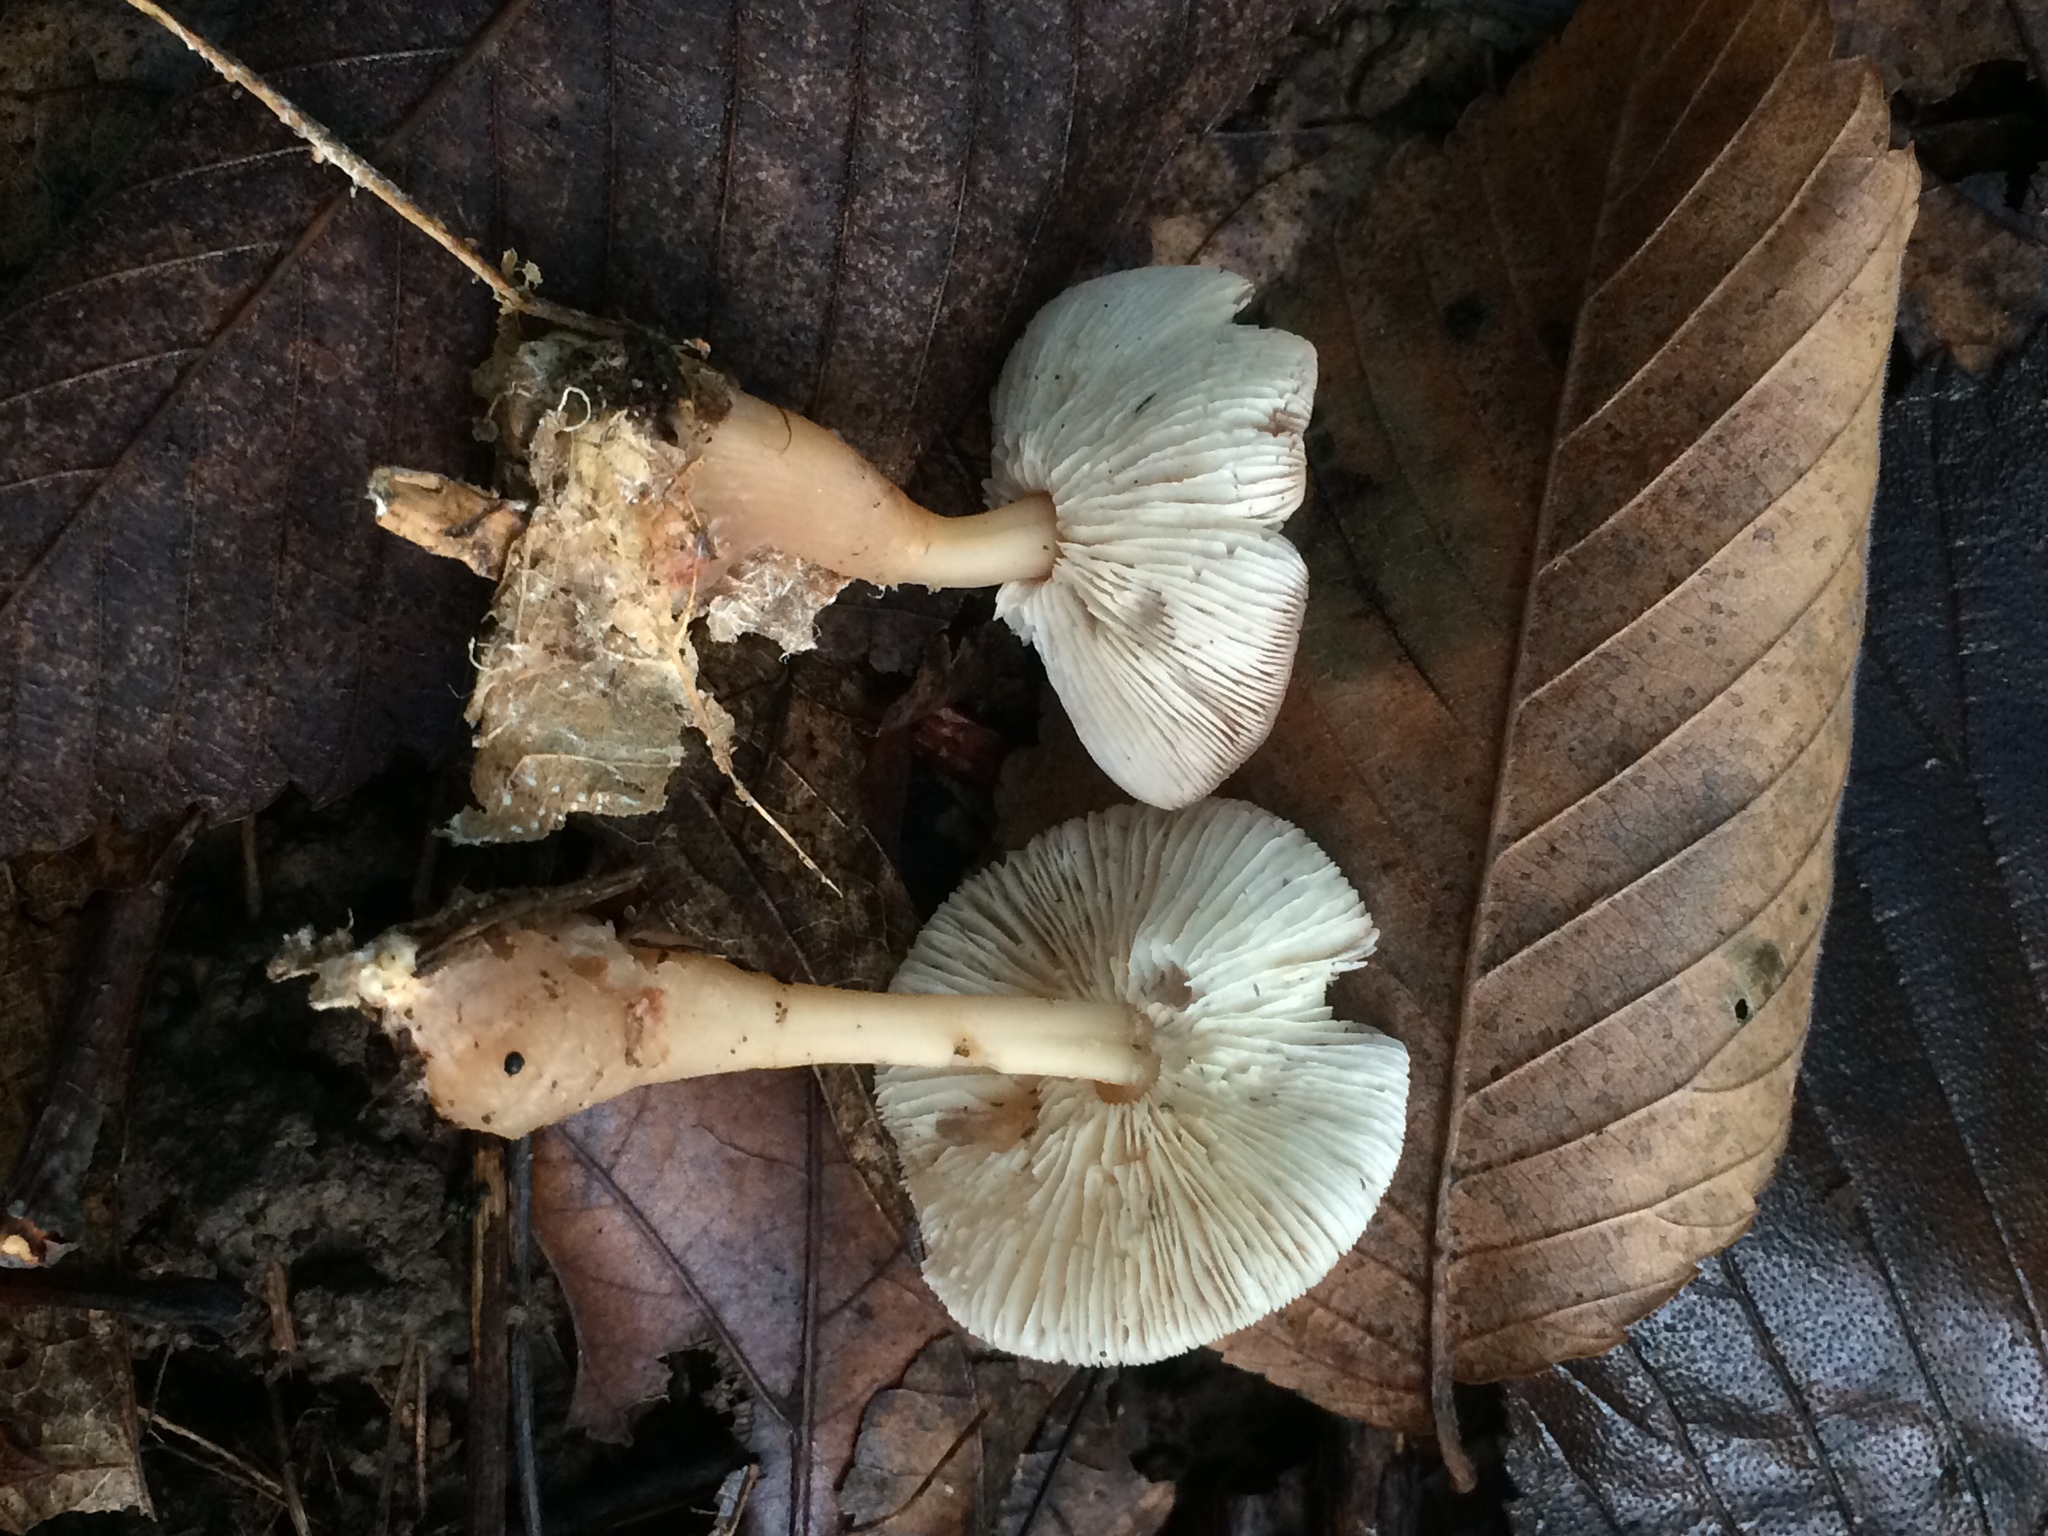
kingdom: Fungi
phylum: Basidiomycota
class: Agaricomycetes
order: Agaricales
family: Omphalotaceae
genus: Gymnopus
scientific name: Gymnopus dryophilus
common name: Penny top
